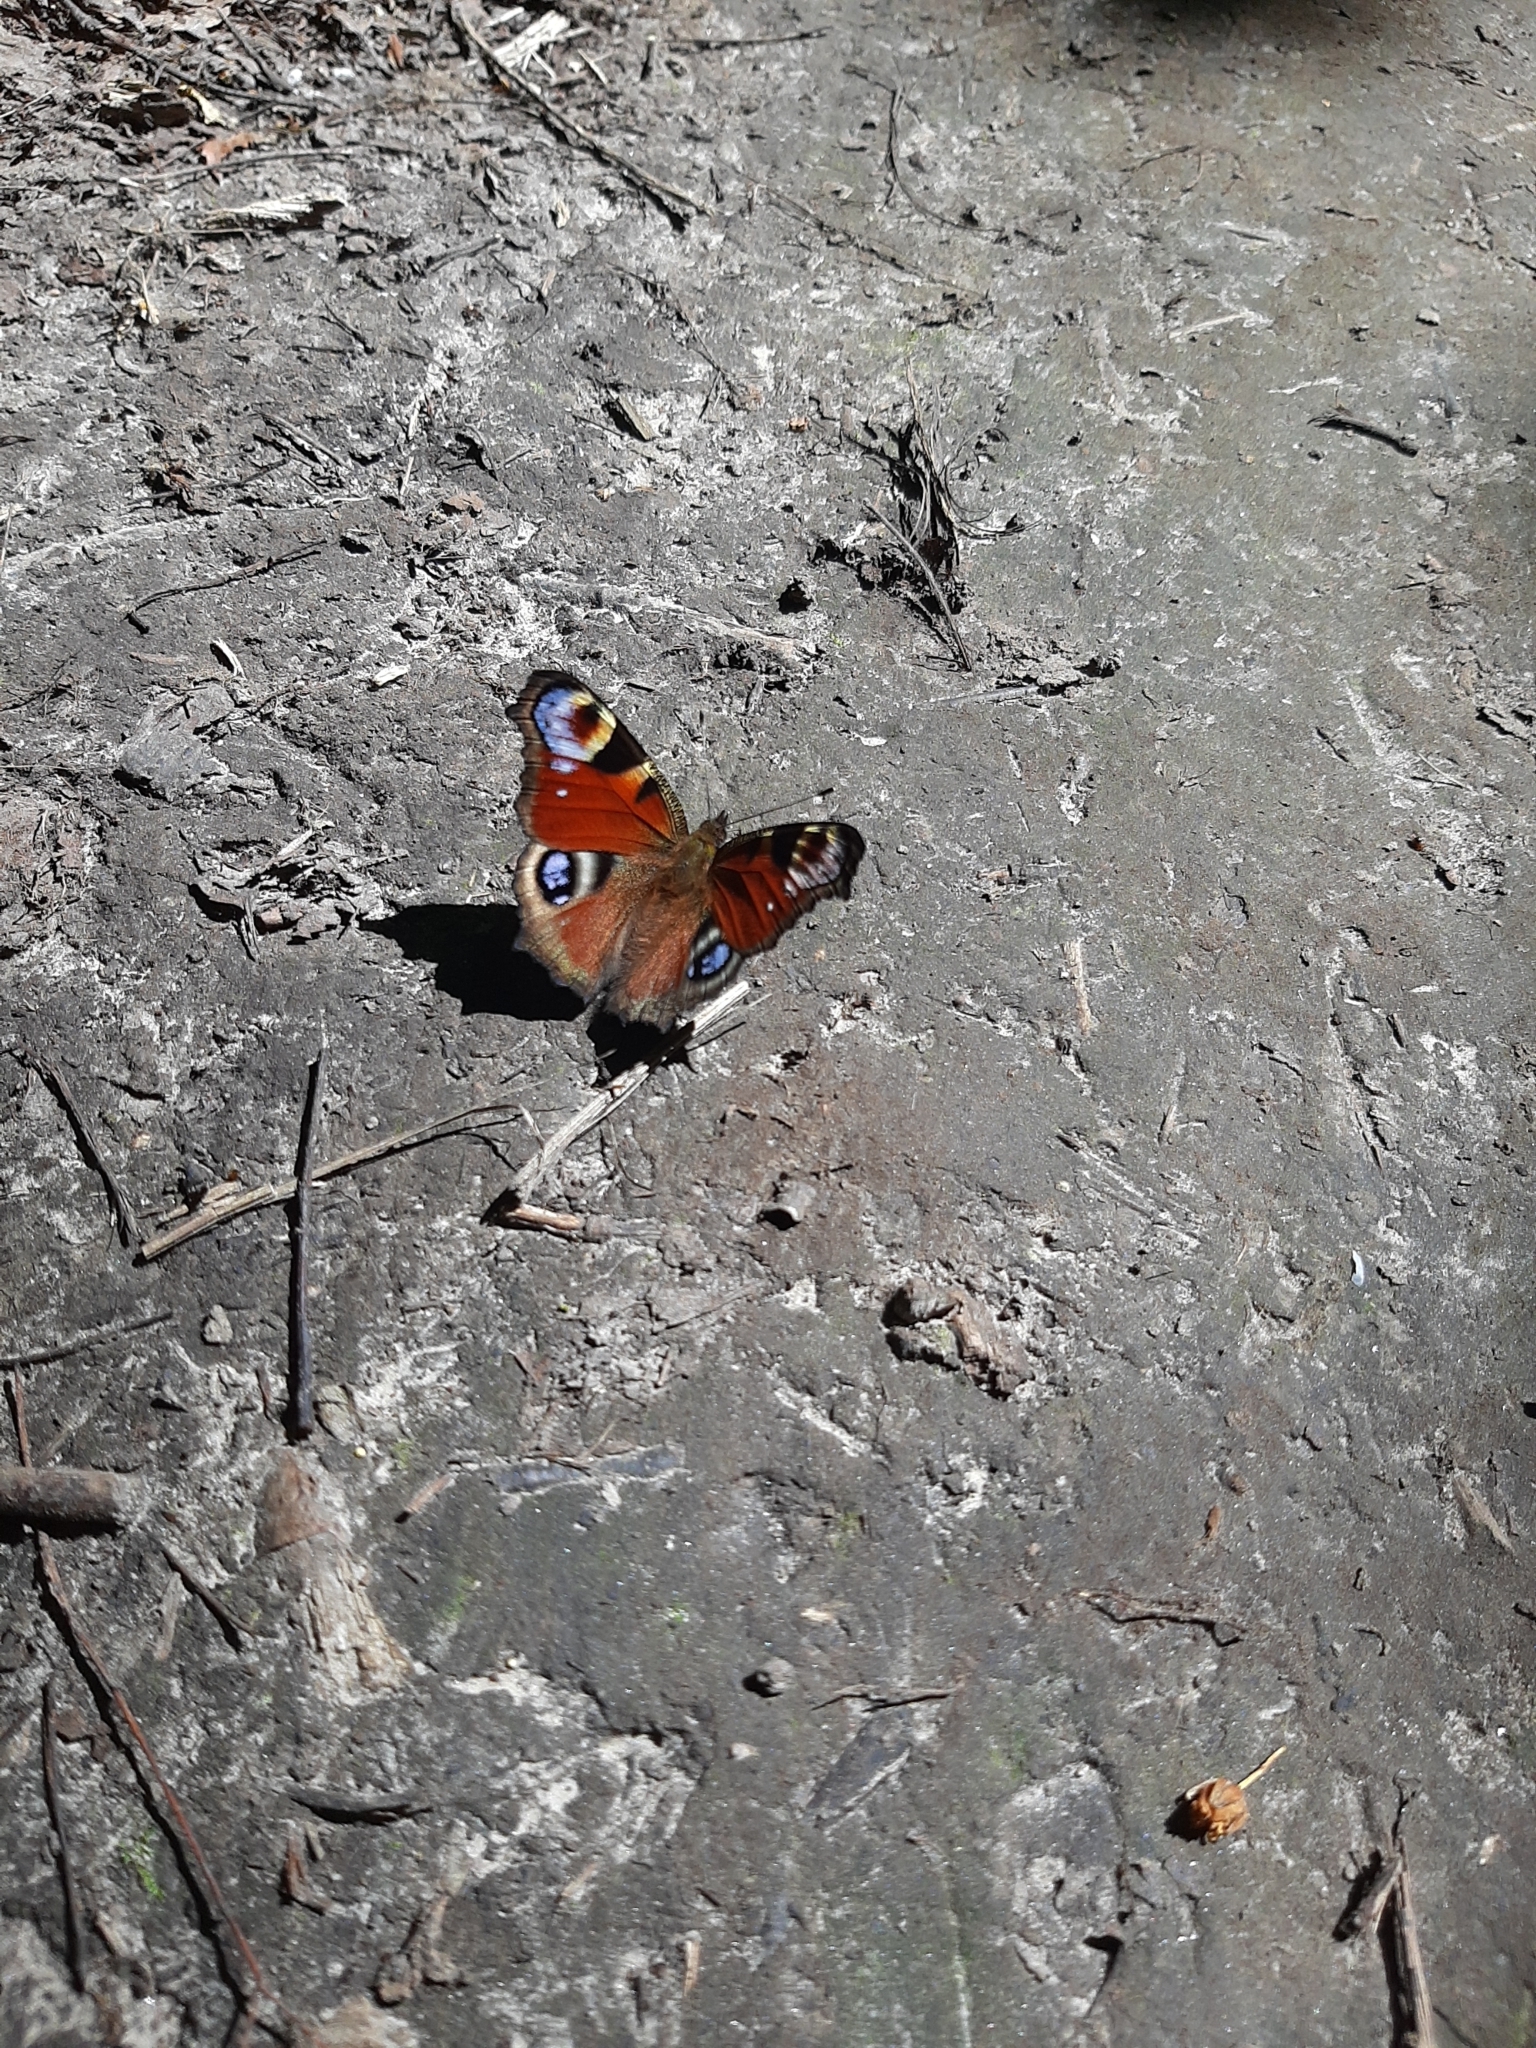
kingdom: Animalia
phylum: Arthropoda
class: Insecta
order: Lepidoptera
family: Nymphalidae
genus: Aglais
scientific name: Aglais io
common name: Peacock
